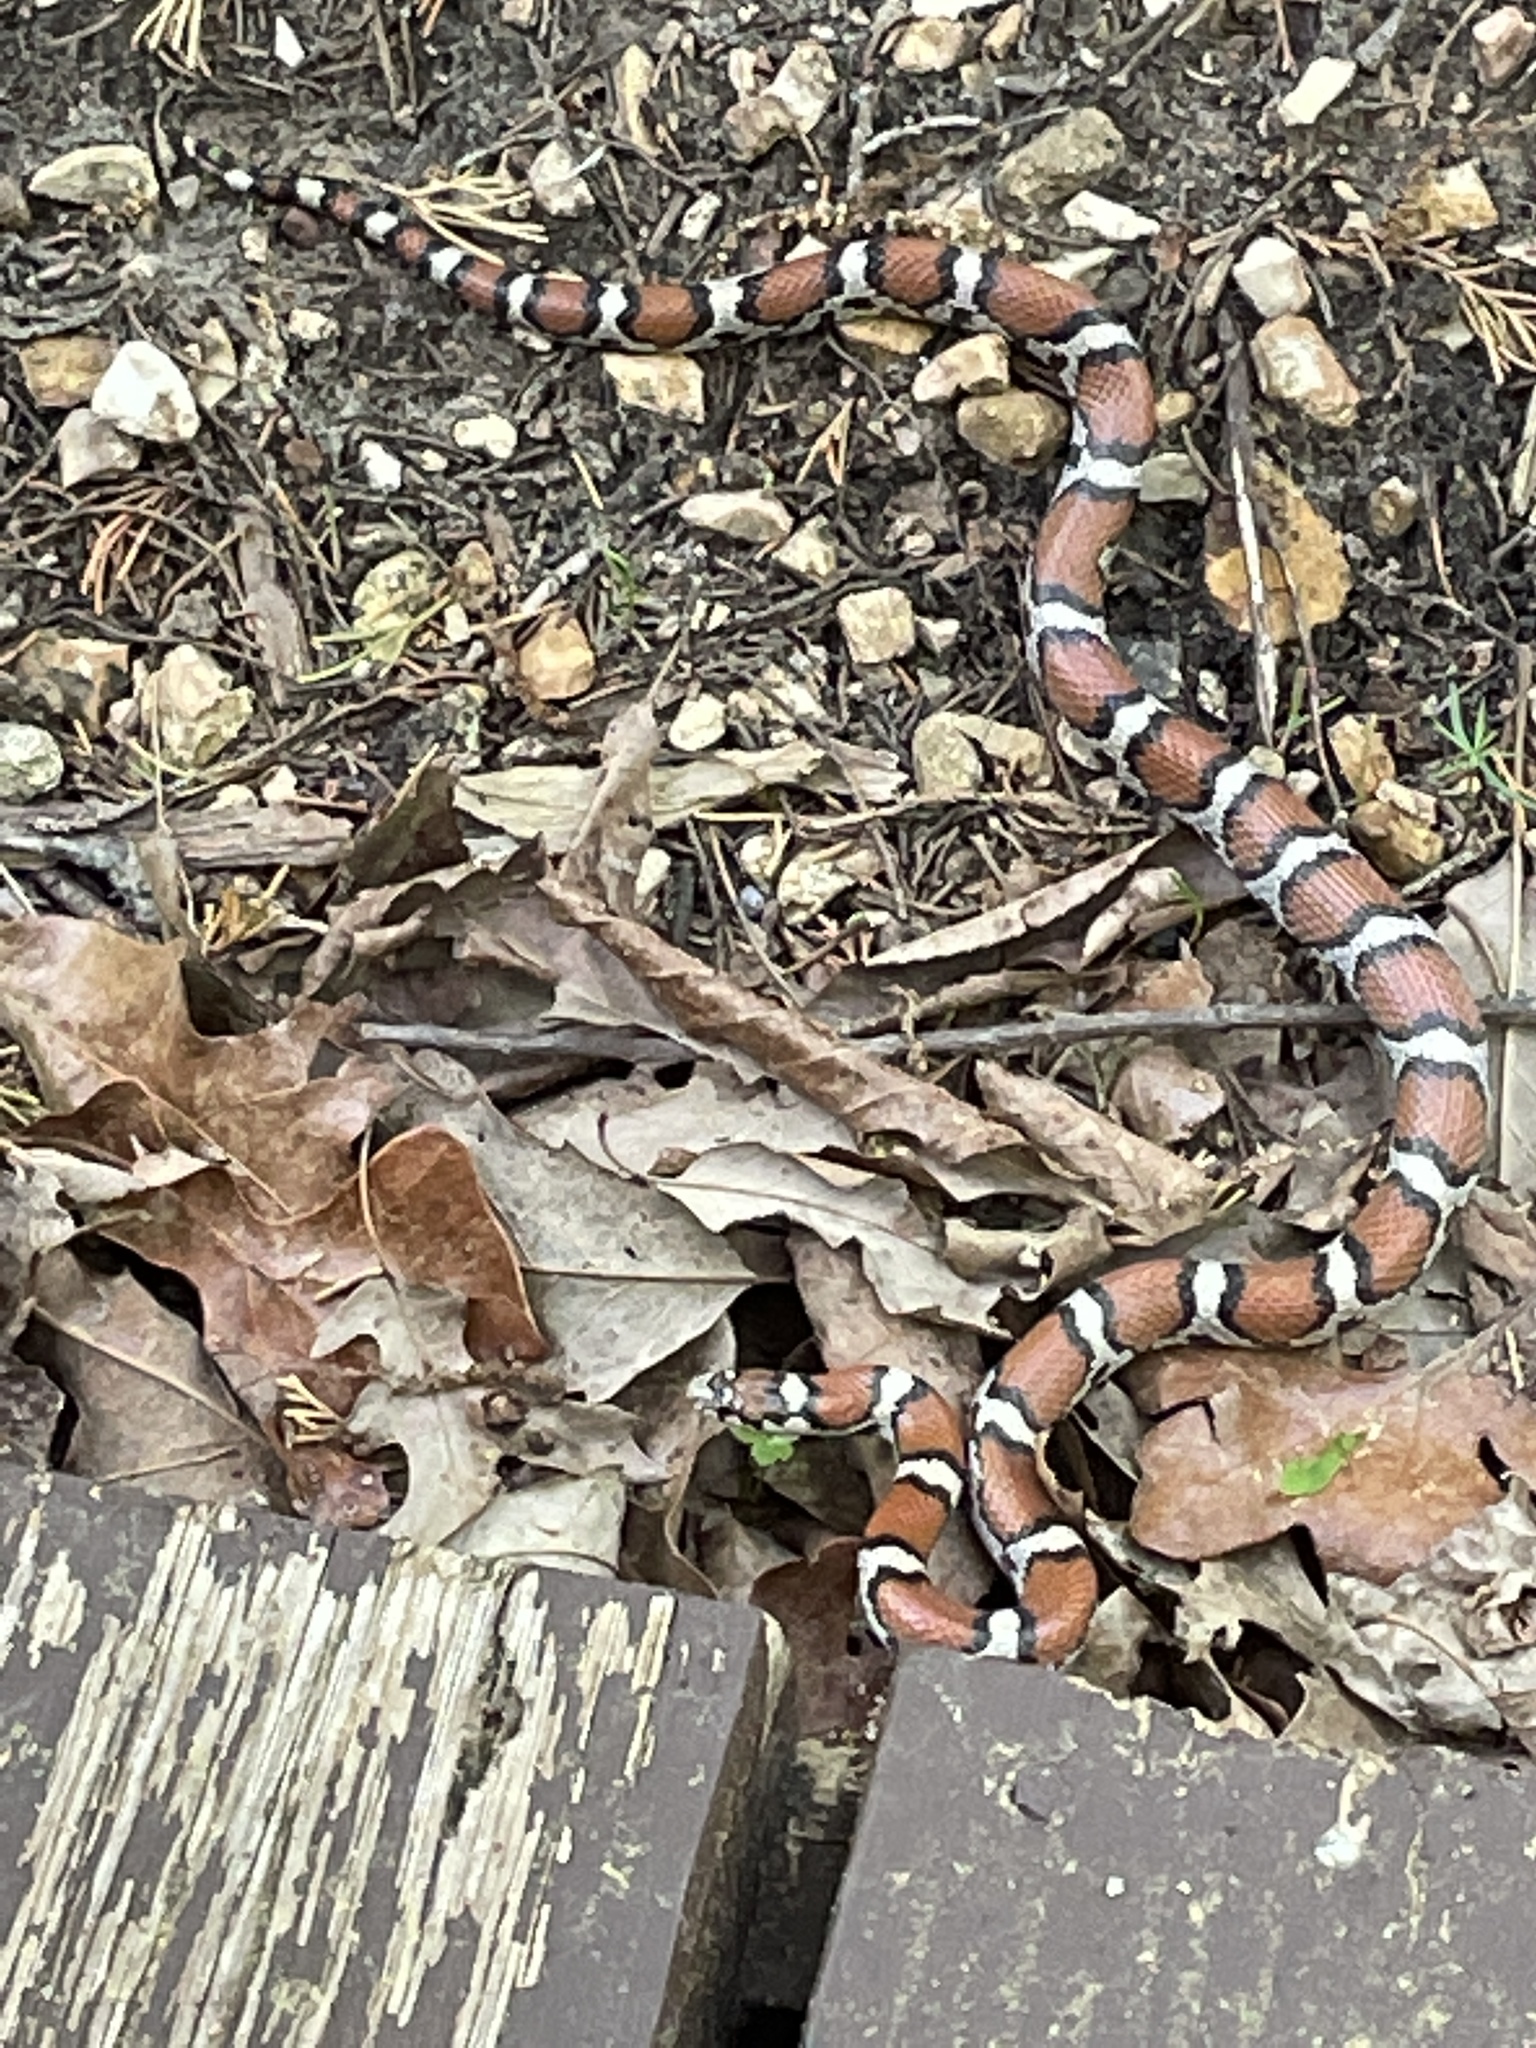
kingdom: Animalia
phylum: Chordata
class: Squamata
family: Colubridae
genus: Lampropeltis
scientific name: Lampropeltis triangulum
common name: Eastern milksnake
